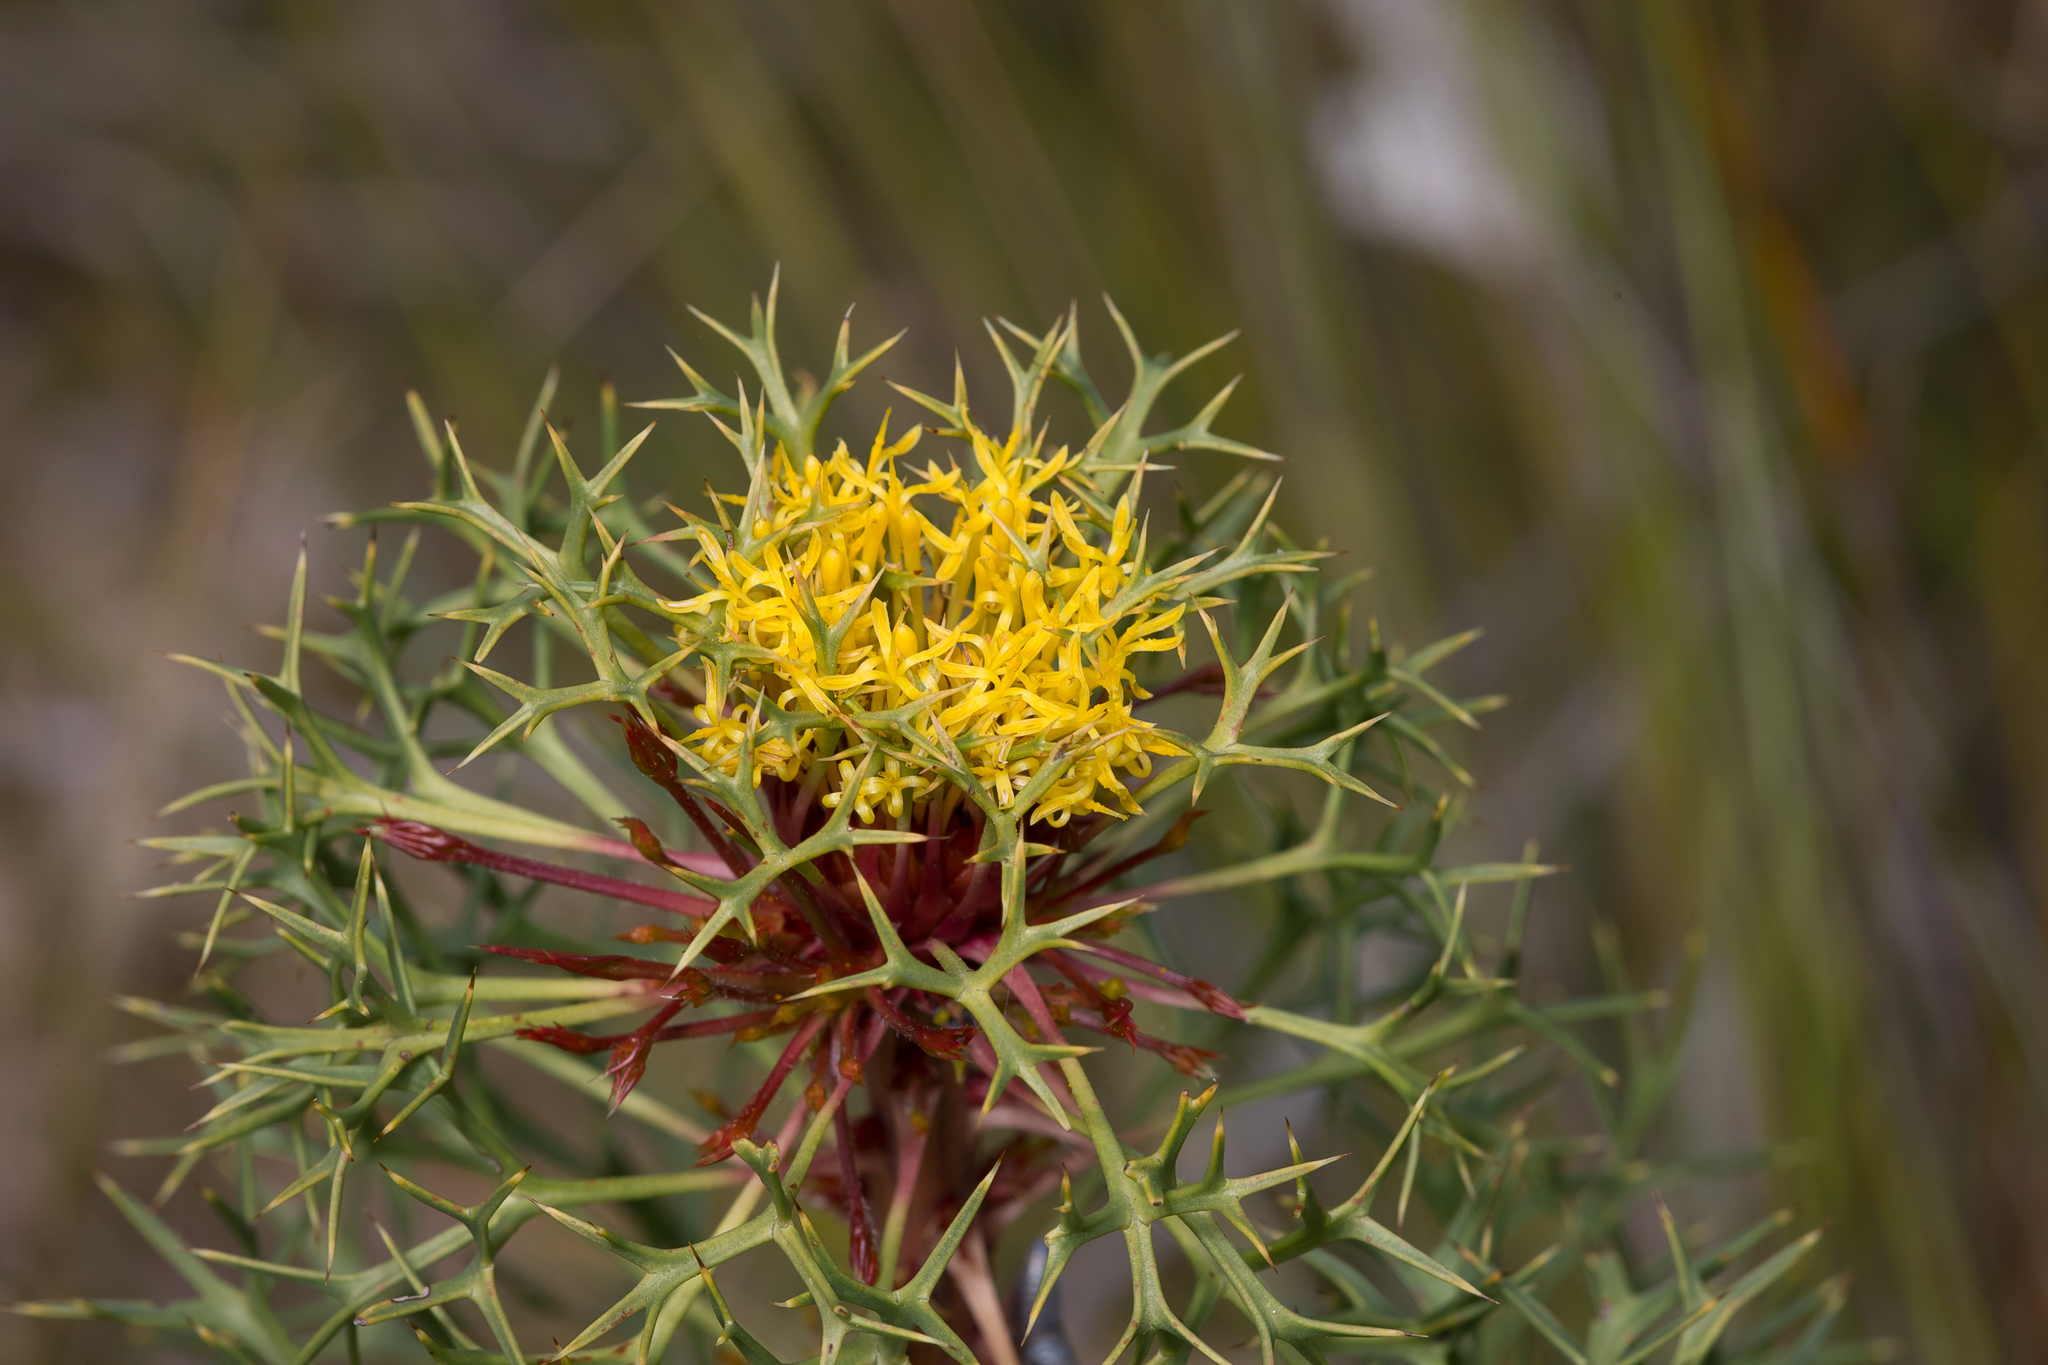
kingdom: Plantae
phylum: Tracheophyta
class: Magnoliopsida
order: Proteales
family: Proteaceae
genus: Isopogon
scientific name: Isopogon ceratophyllus
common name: Horny cone-bush
